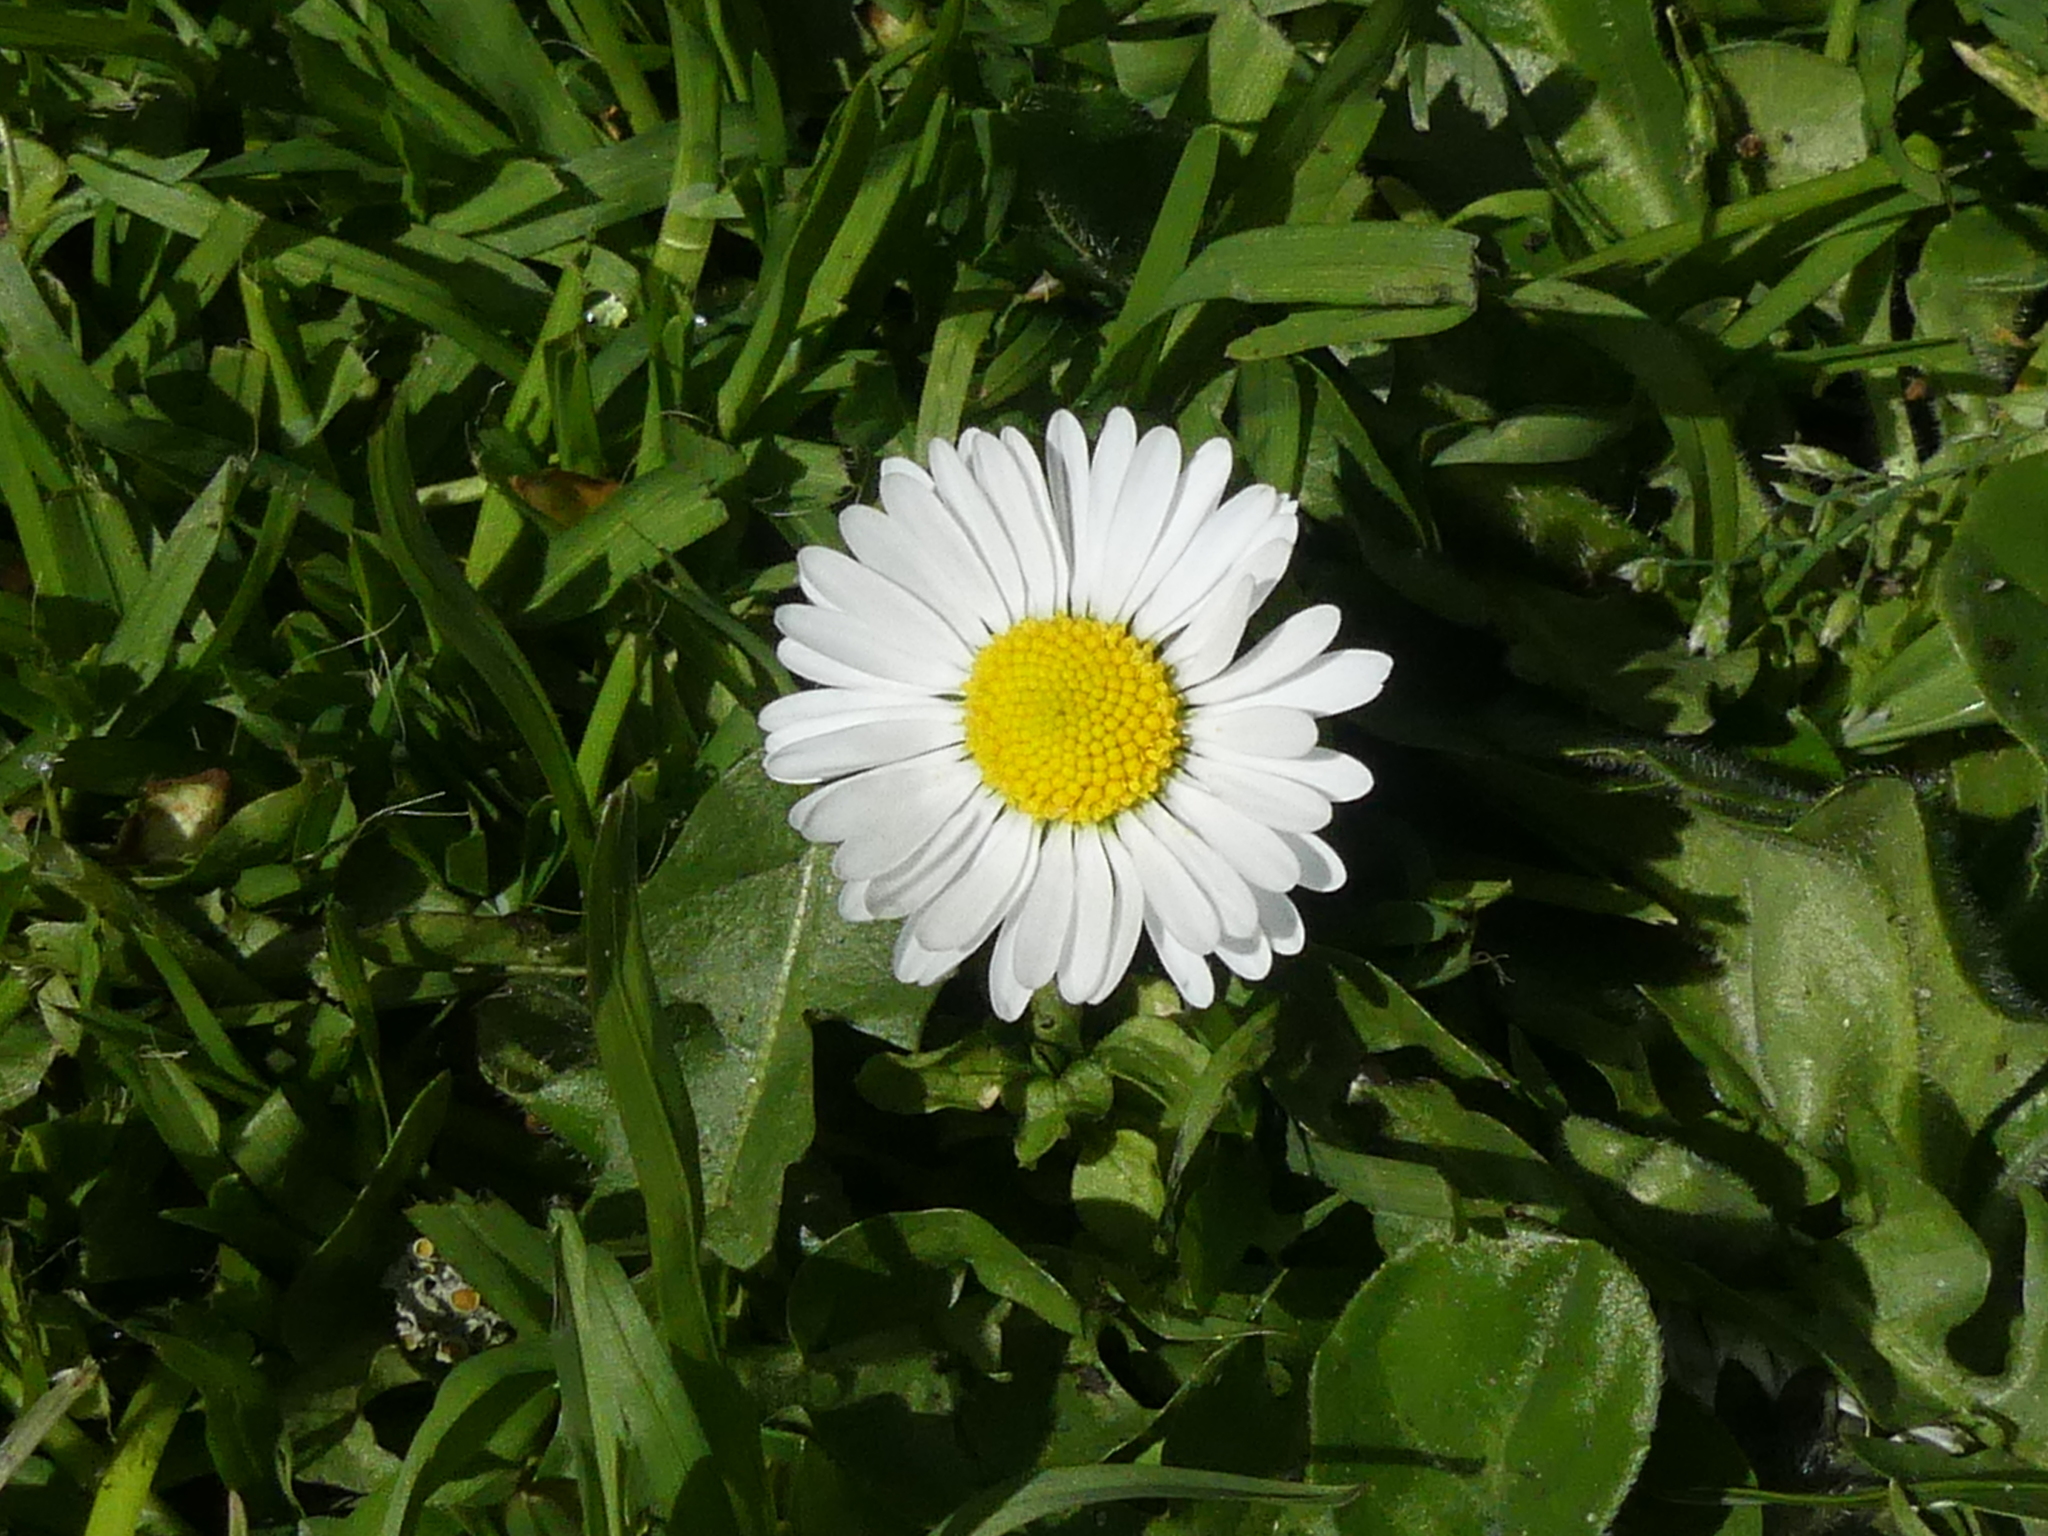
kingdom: Plantae
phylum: Tracheophyta
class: Magnoliopsida
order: Asterales
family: Asteraceae
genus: Bellis
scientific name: Bellis perennis
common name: Lawndaisy
